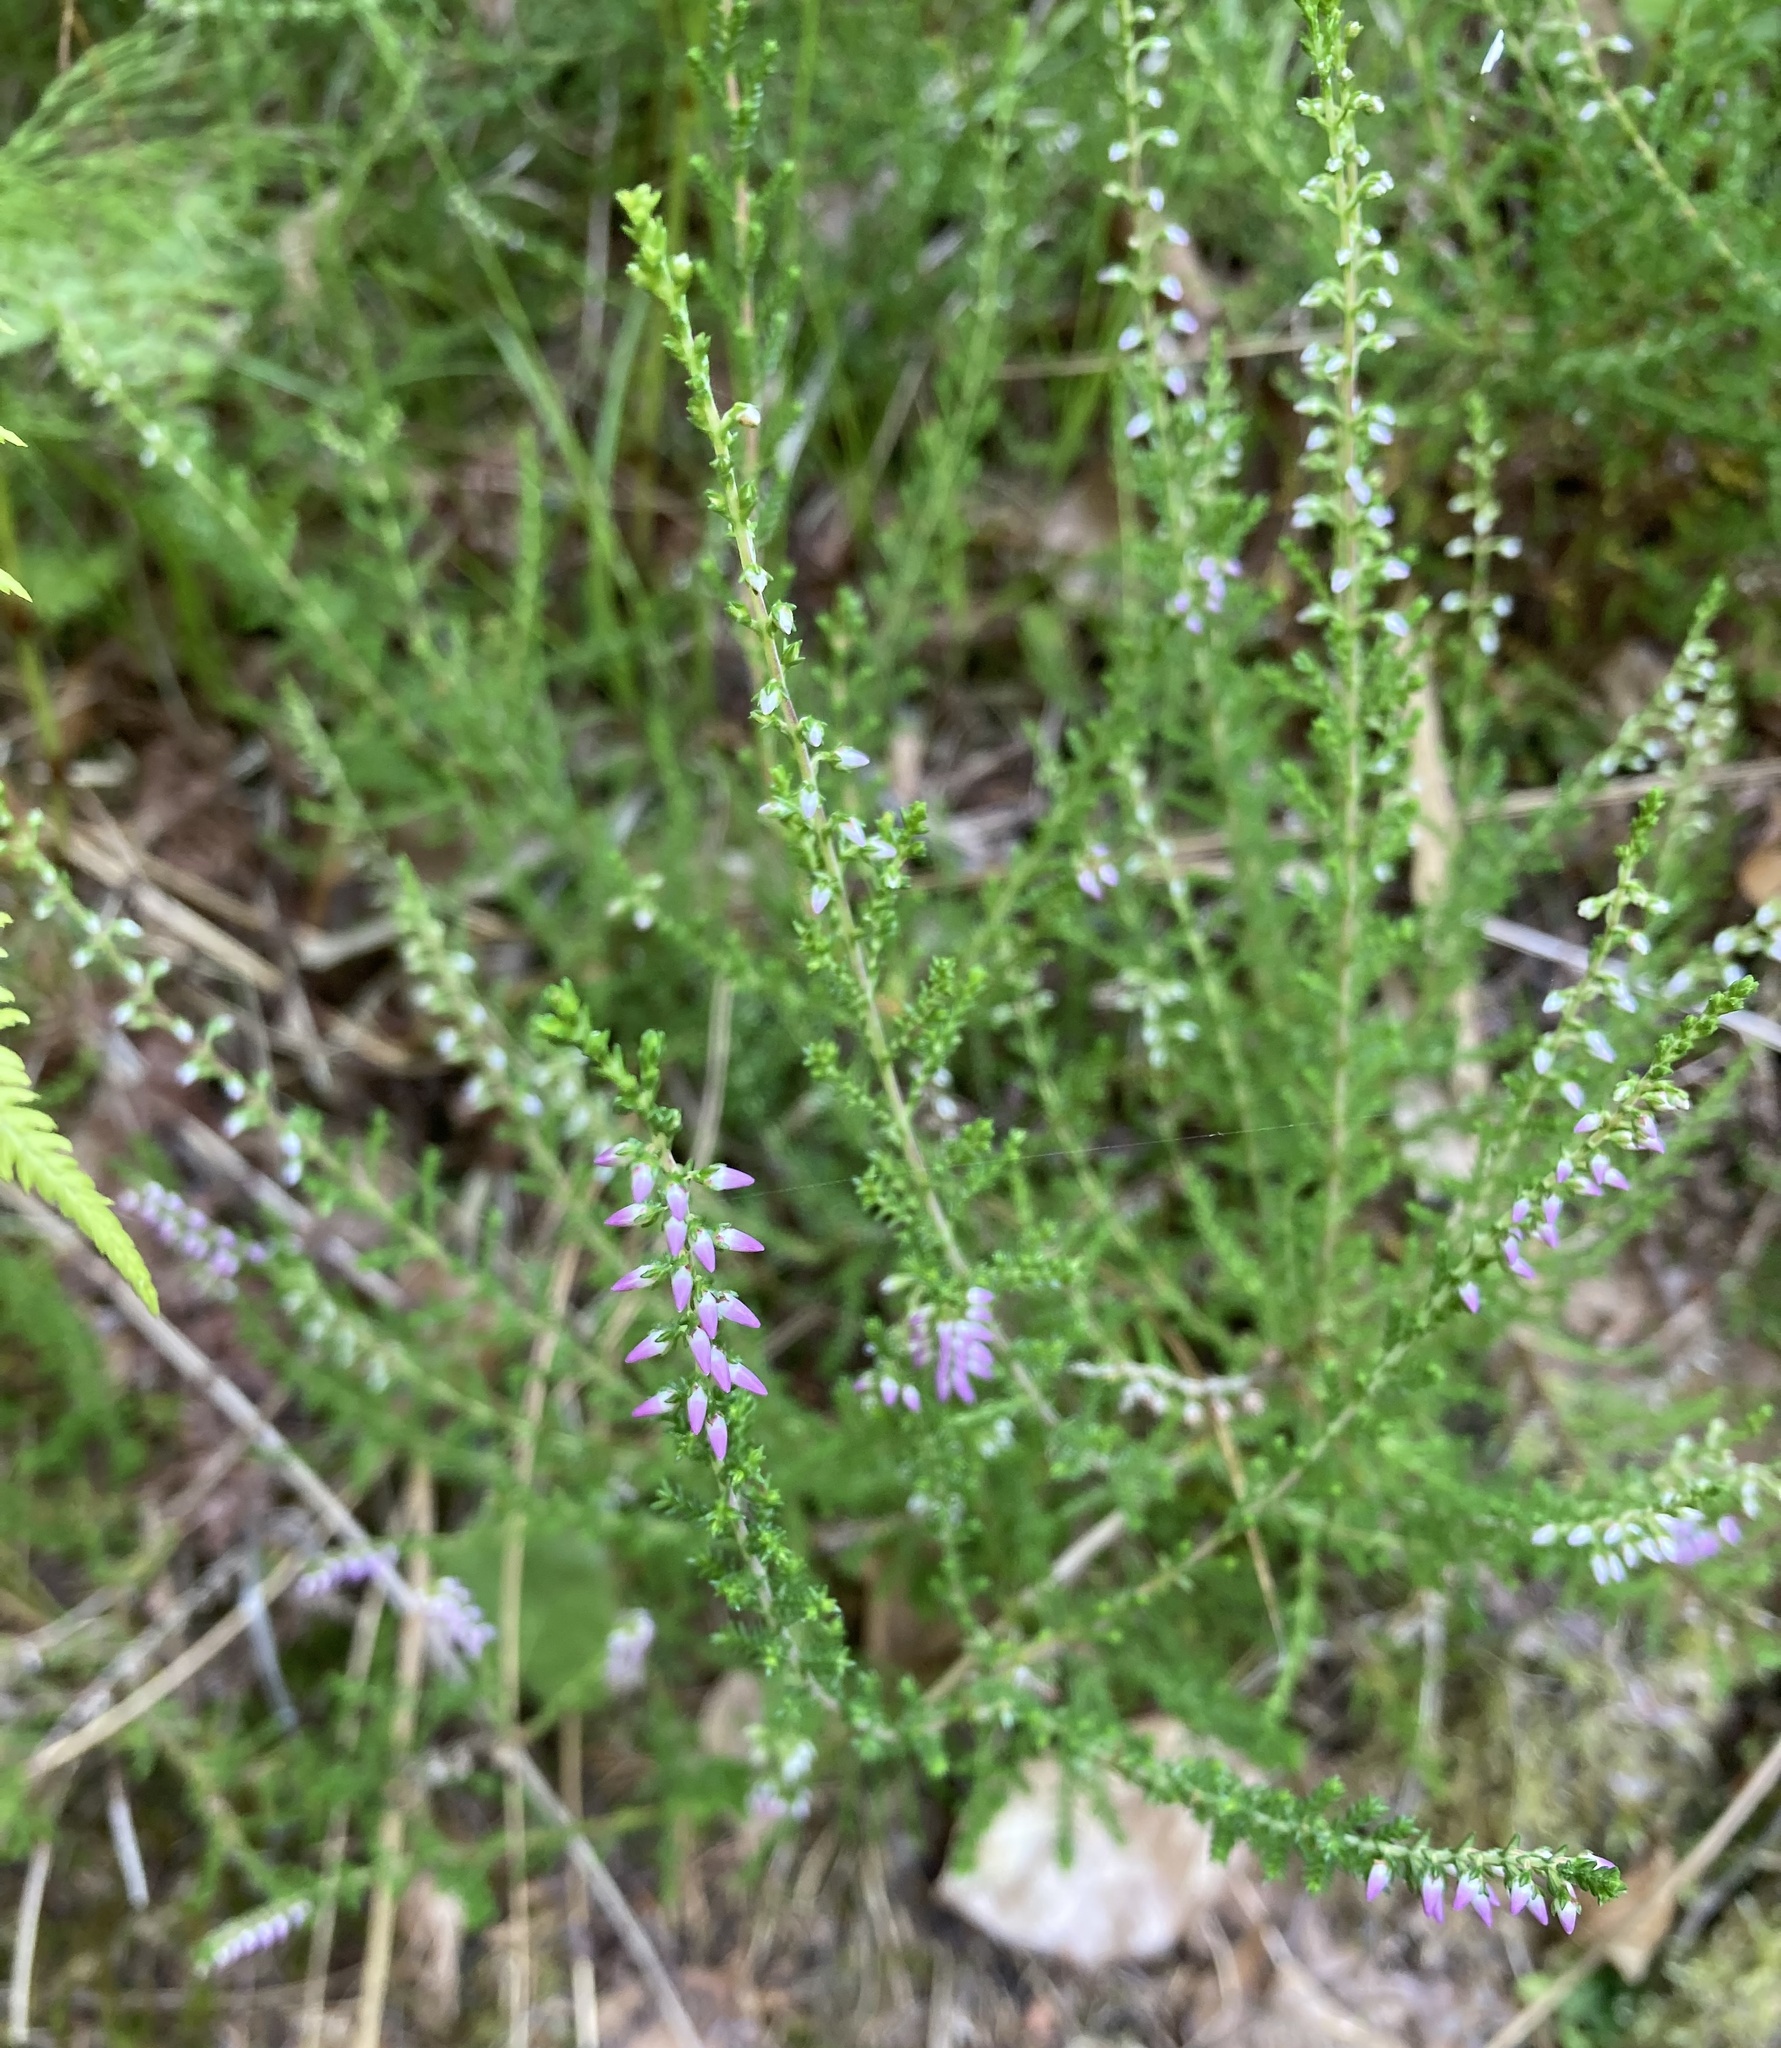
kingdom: Plantae
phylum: Tracheophyta
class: Magnoliopsida
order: Ericales
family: Ericaceae
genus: Calluna
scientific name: Calluna vulgaris
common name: Heather
